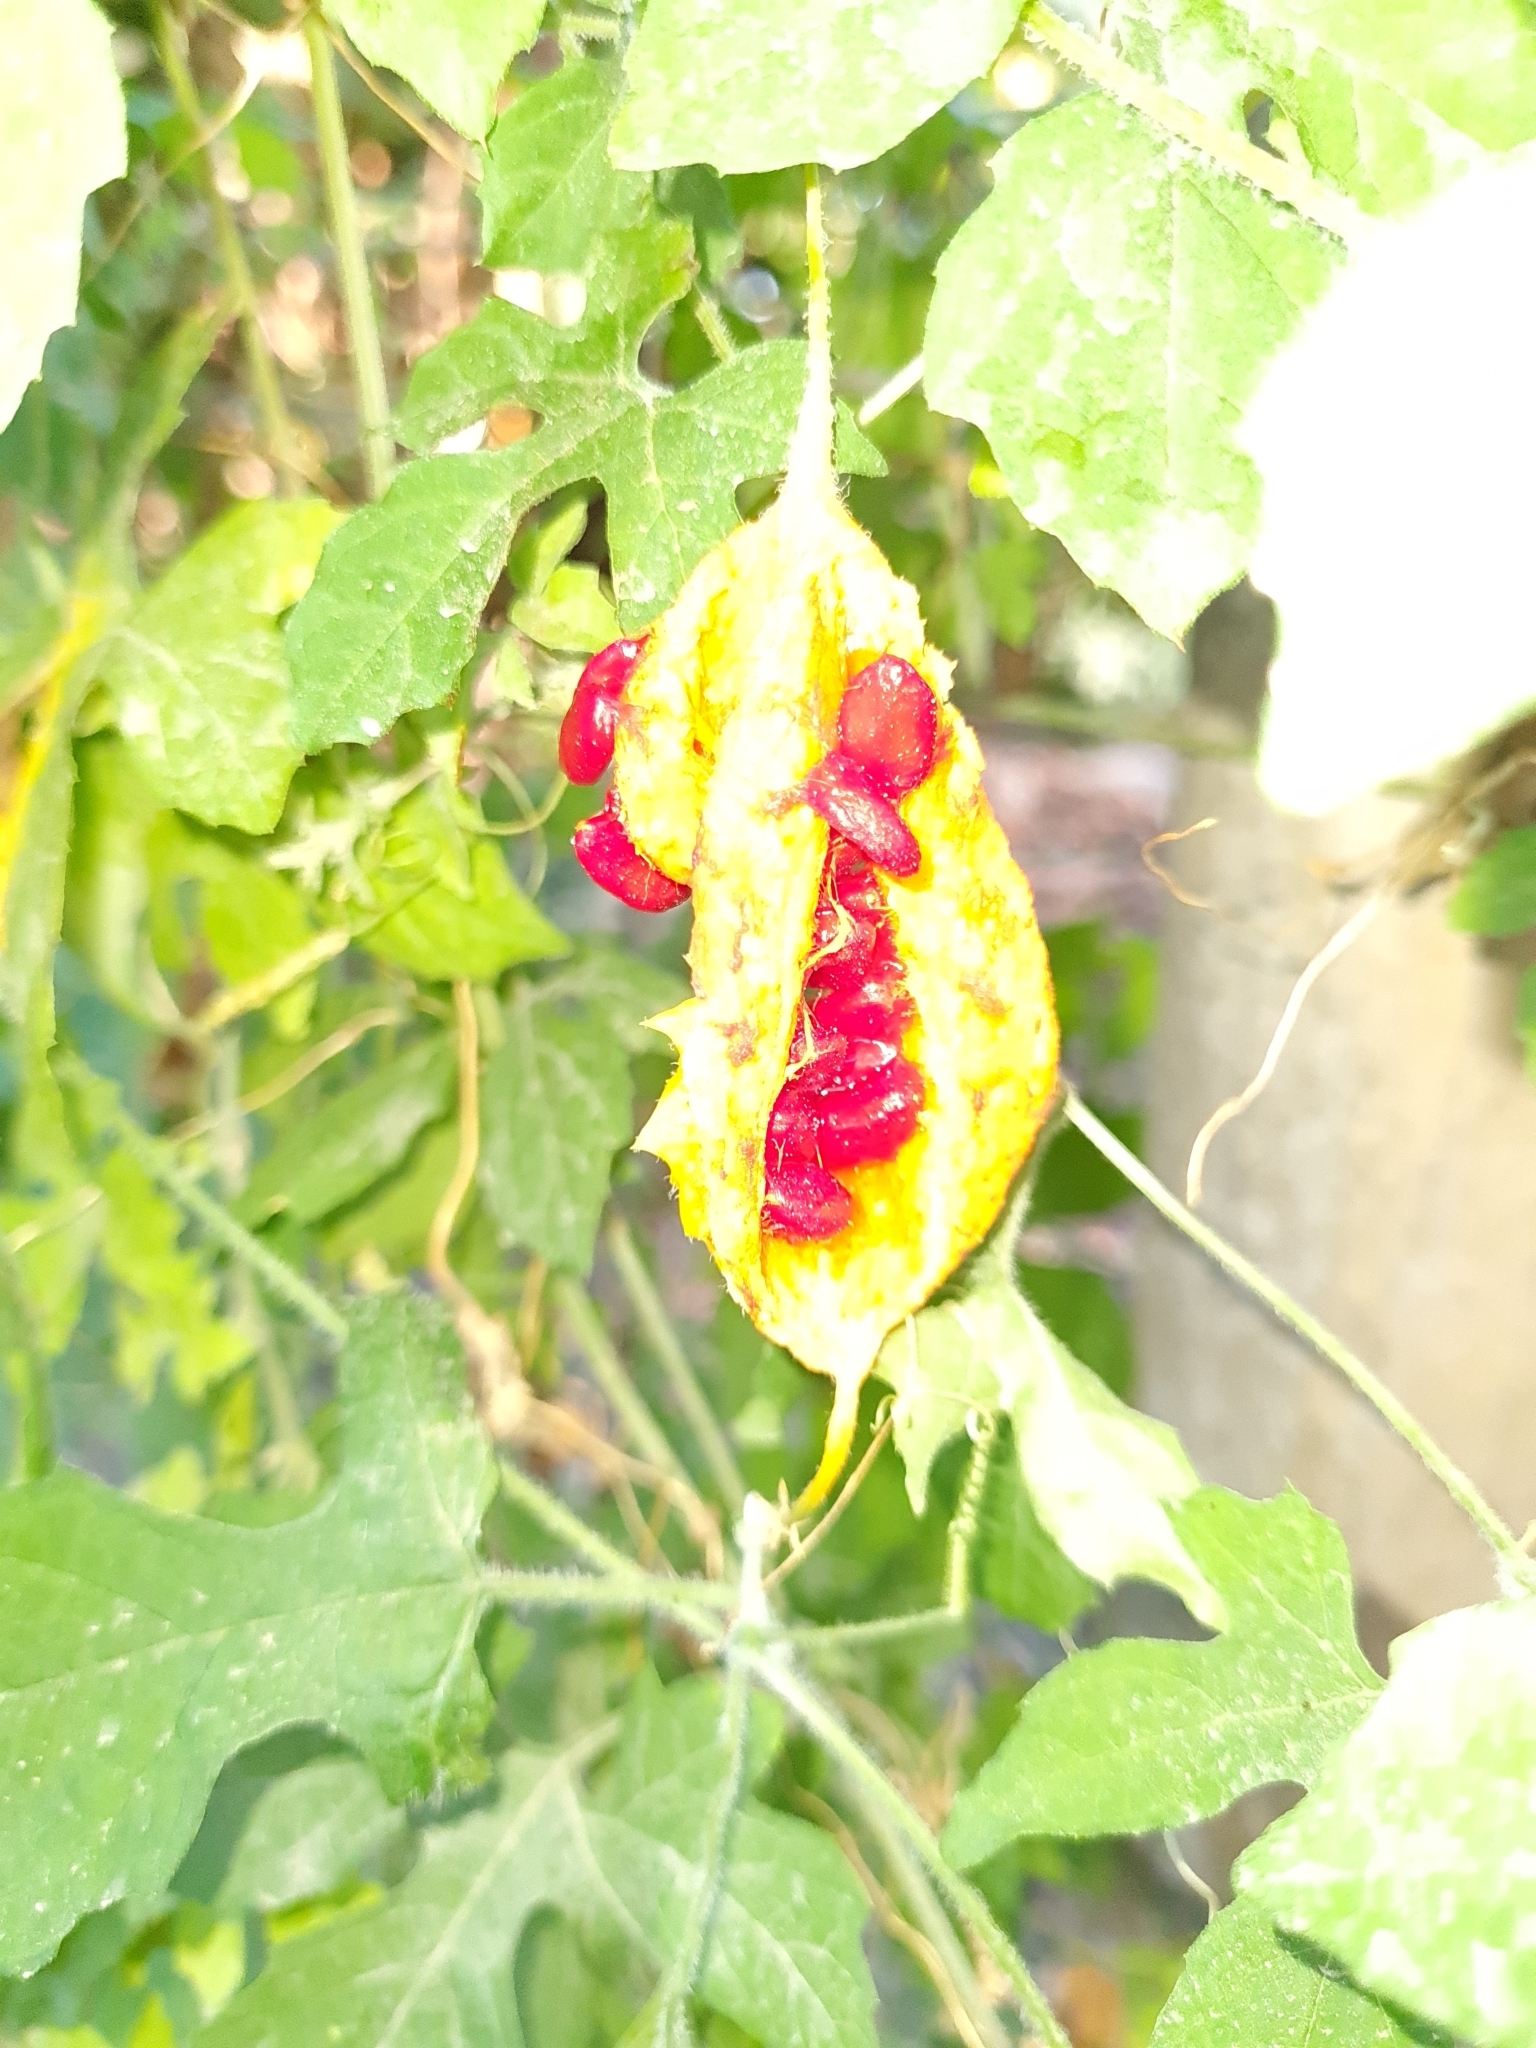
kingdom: Plantae
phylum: Tracheophyta
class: Magnoliopsida
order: Cucurbitales
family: Cucurbitaceae
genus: Momordica
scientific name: Momordica charantia
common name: Balsampear
